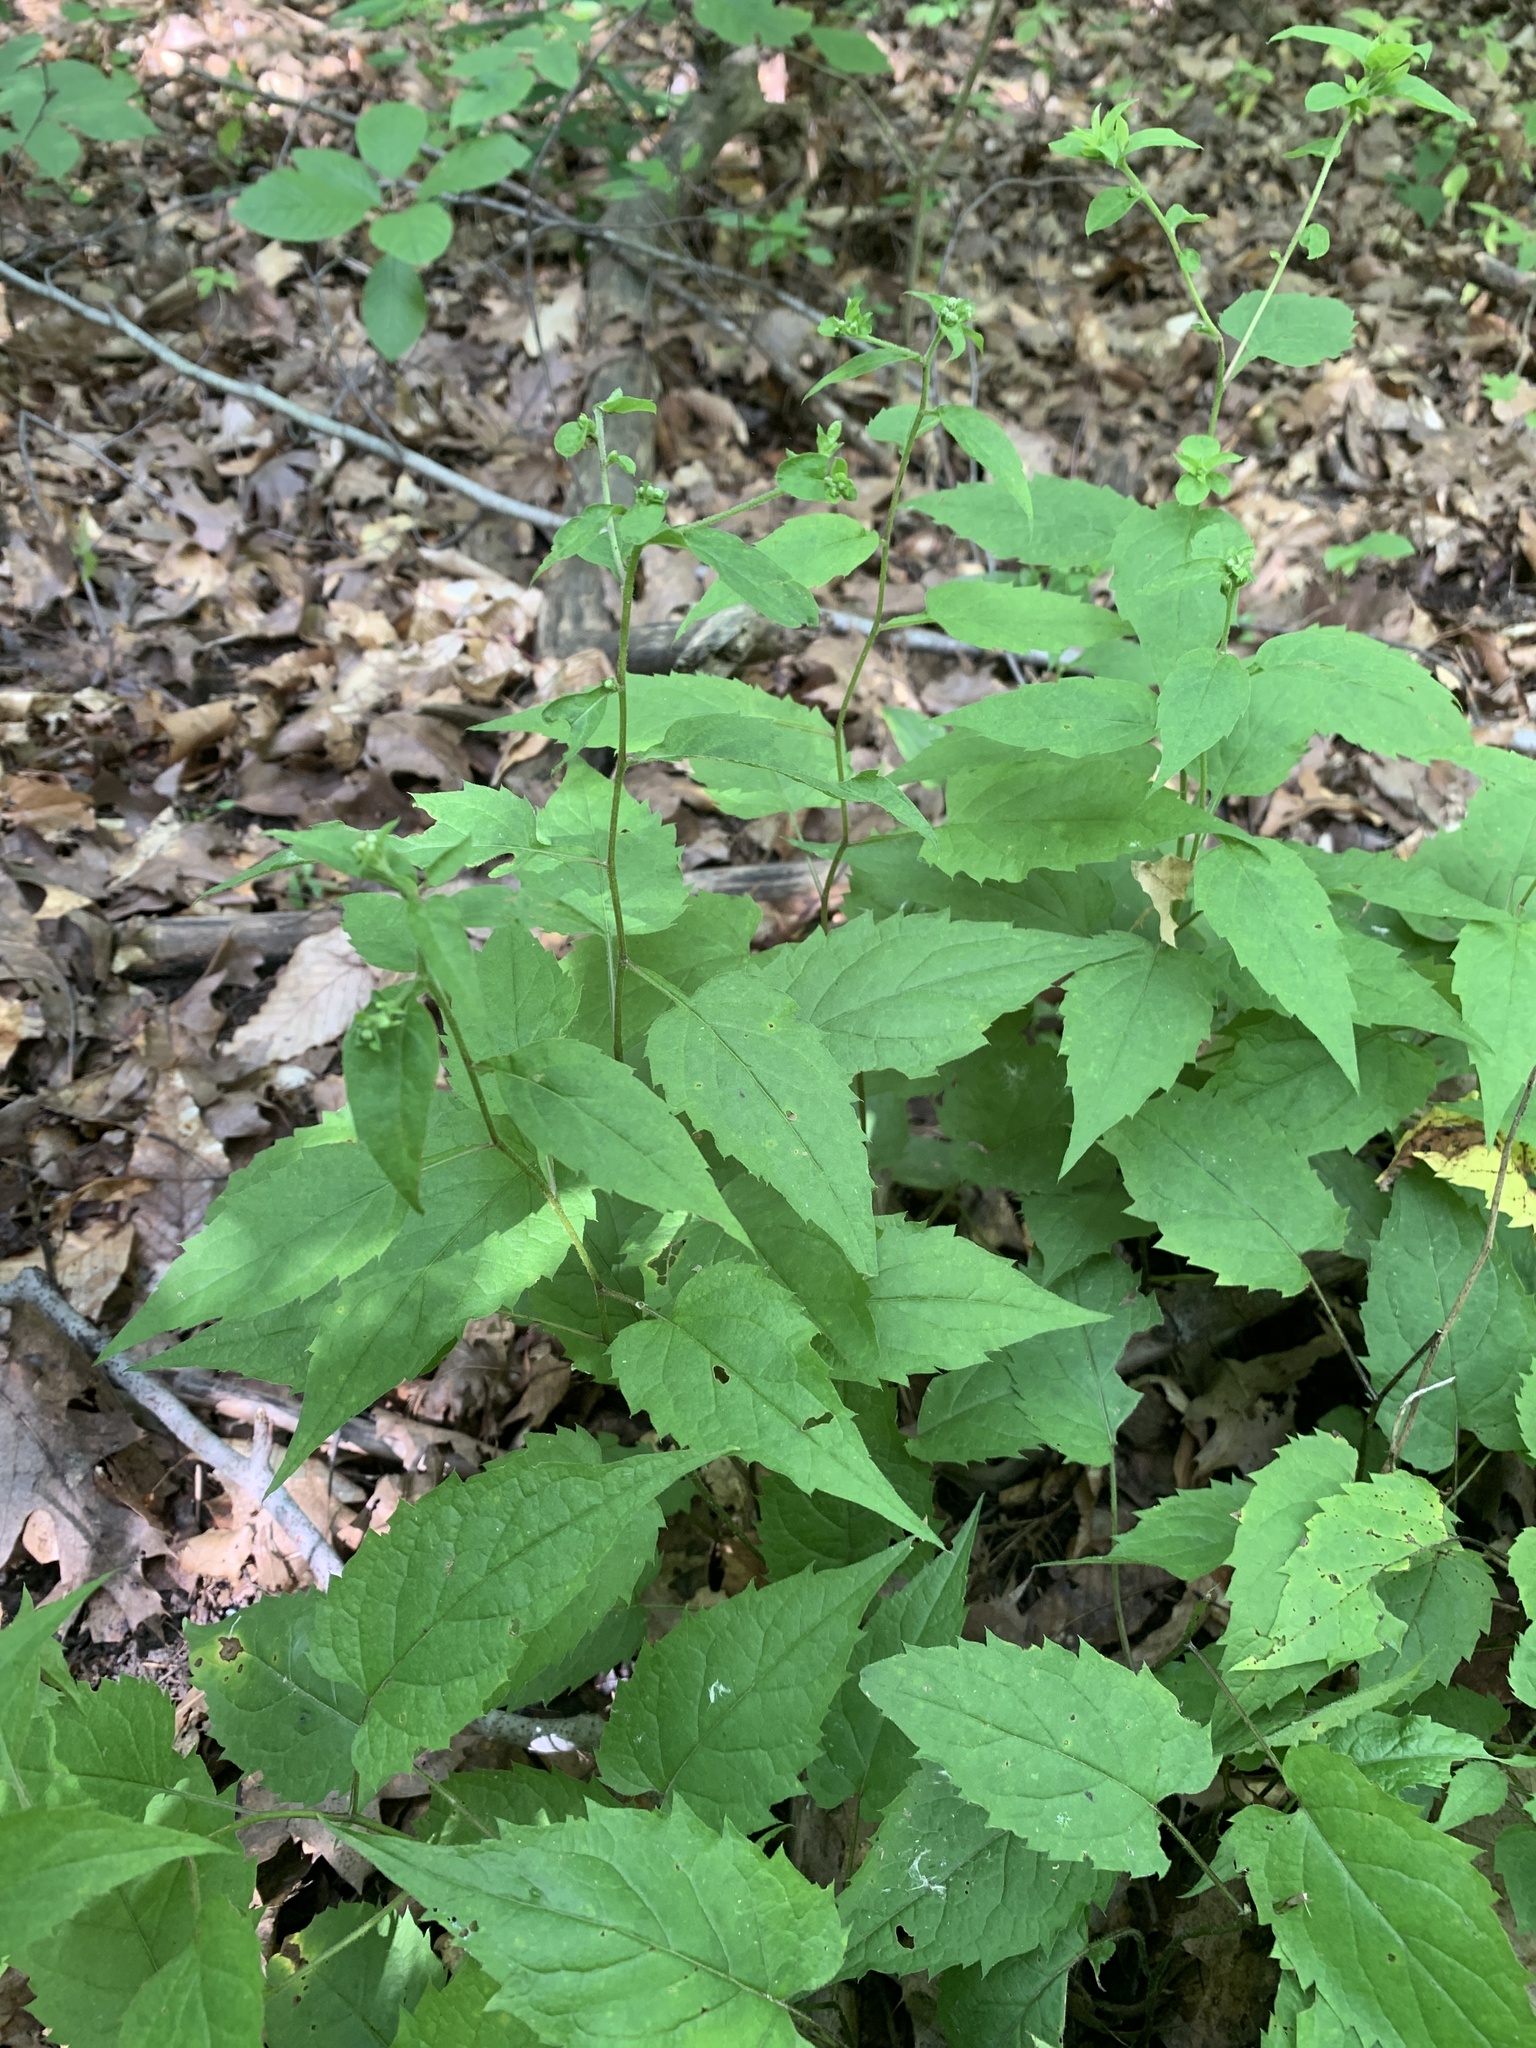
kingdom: Plantae
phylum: Tracheophyta
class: Magnoliopsida
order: Asterales
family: Asteraceae
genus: Eurybia
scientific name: Eurybia divaricata
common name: White wood aster
